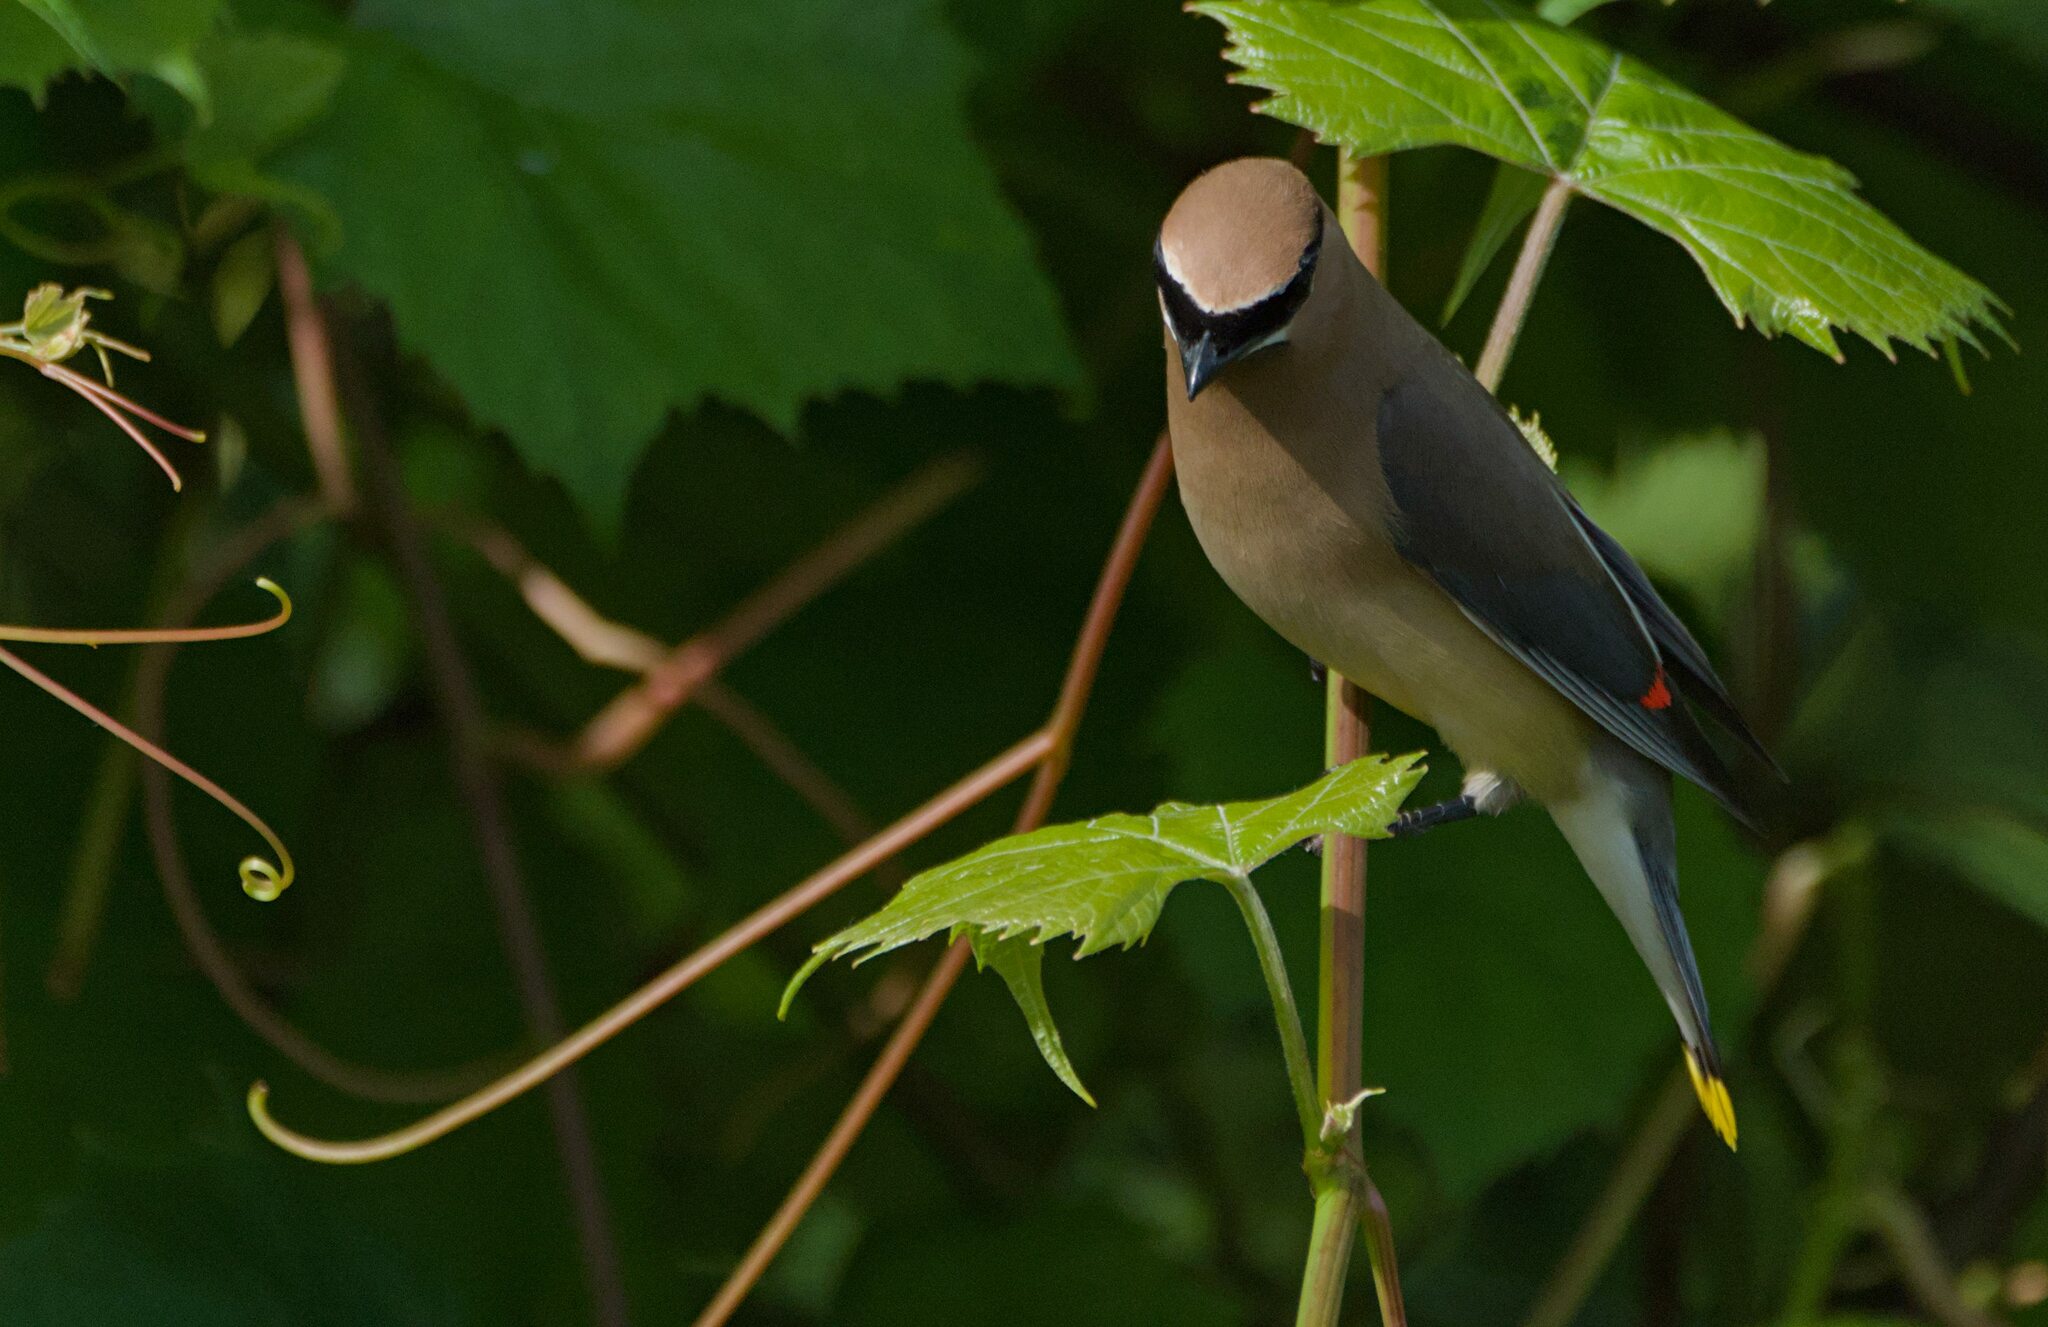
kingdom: Animalia
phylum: Chordata
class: Aves
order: Passeriformes
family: Bombycillidae
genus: Bombycilla
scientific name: Bombycilla cedrorum
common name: Cedar waxwing
